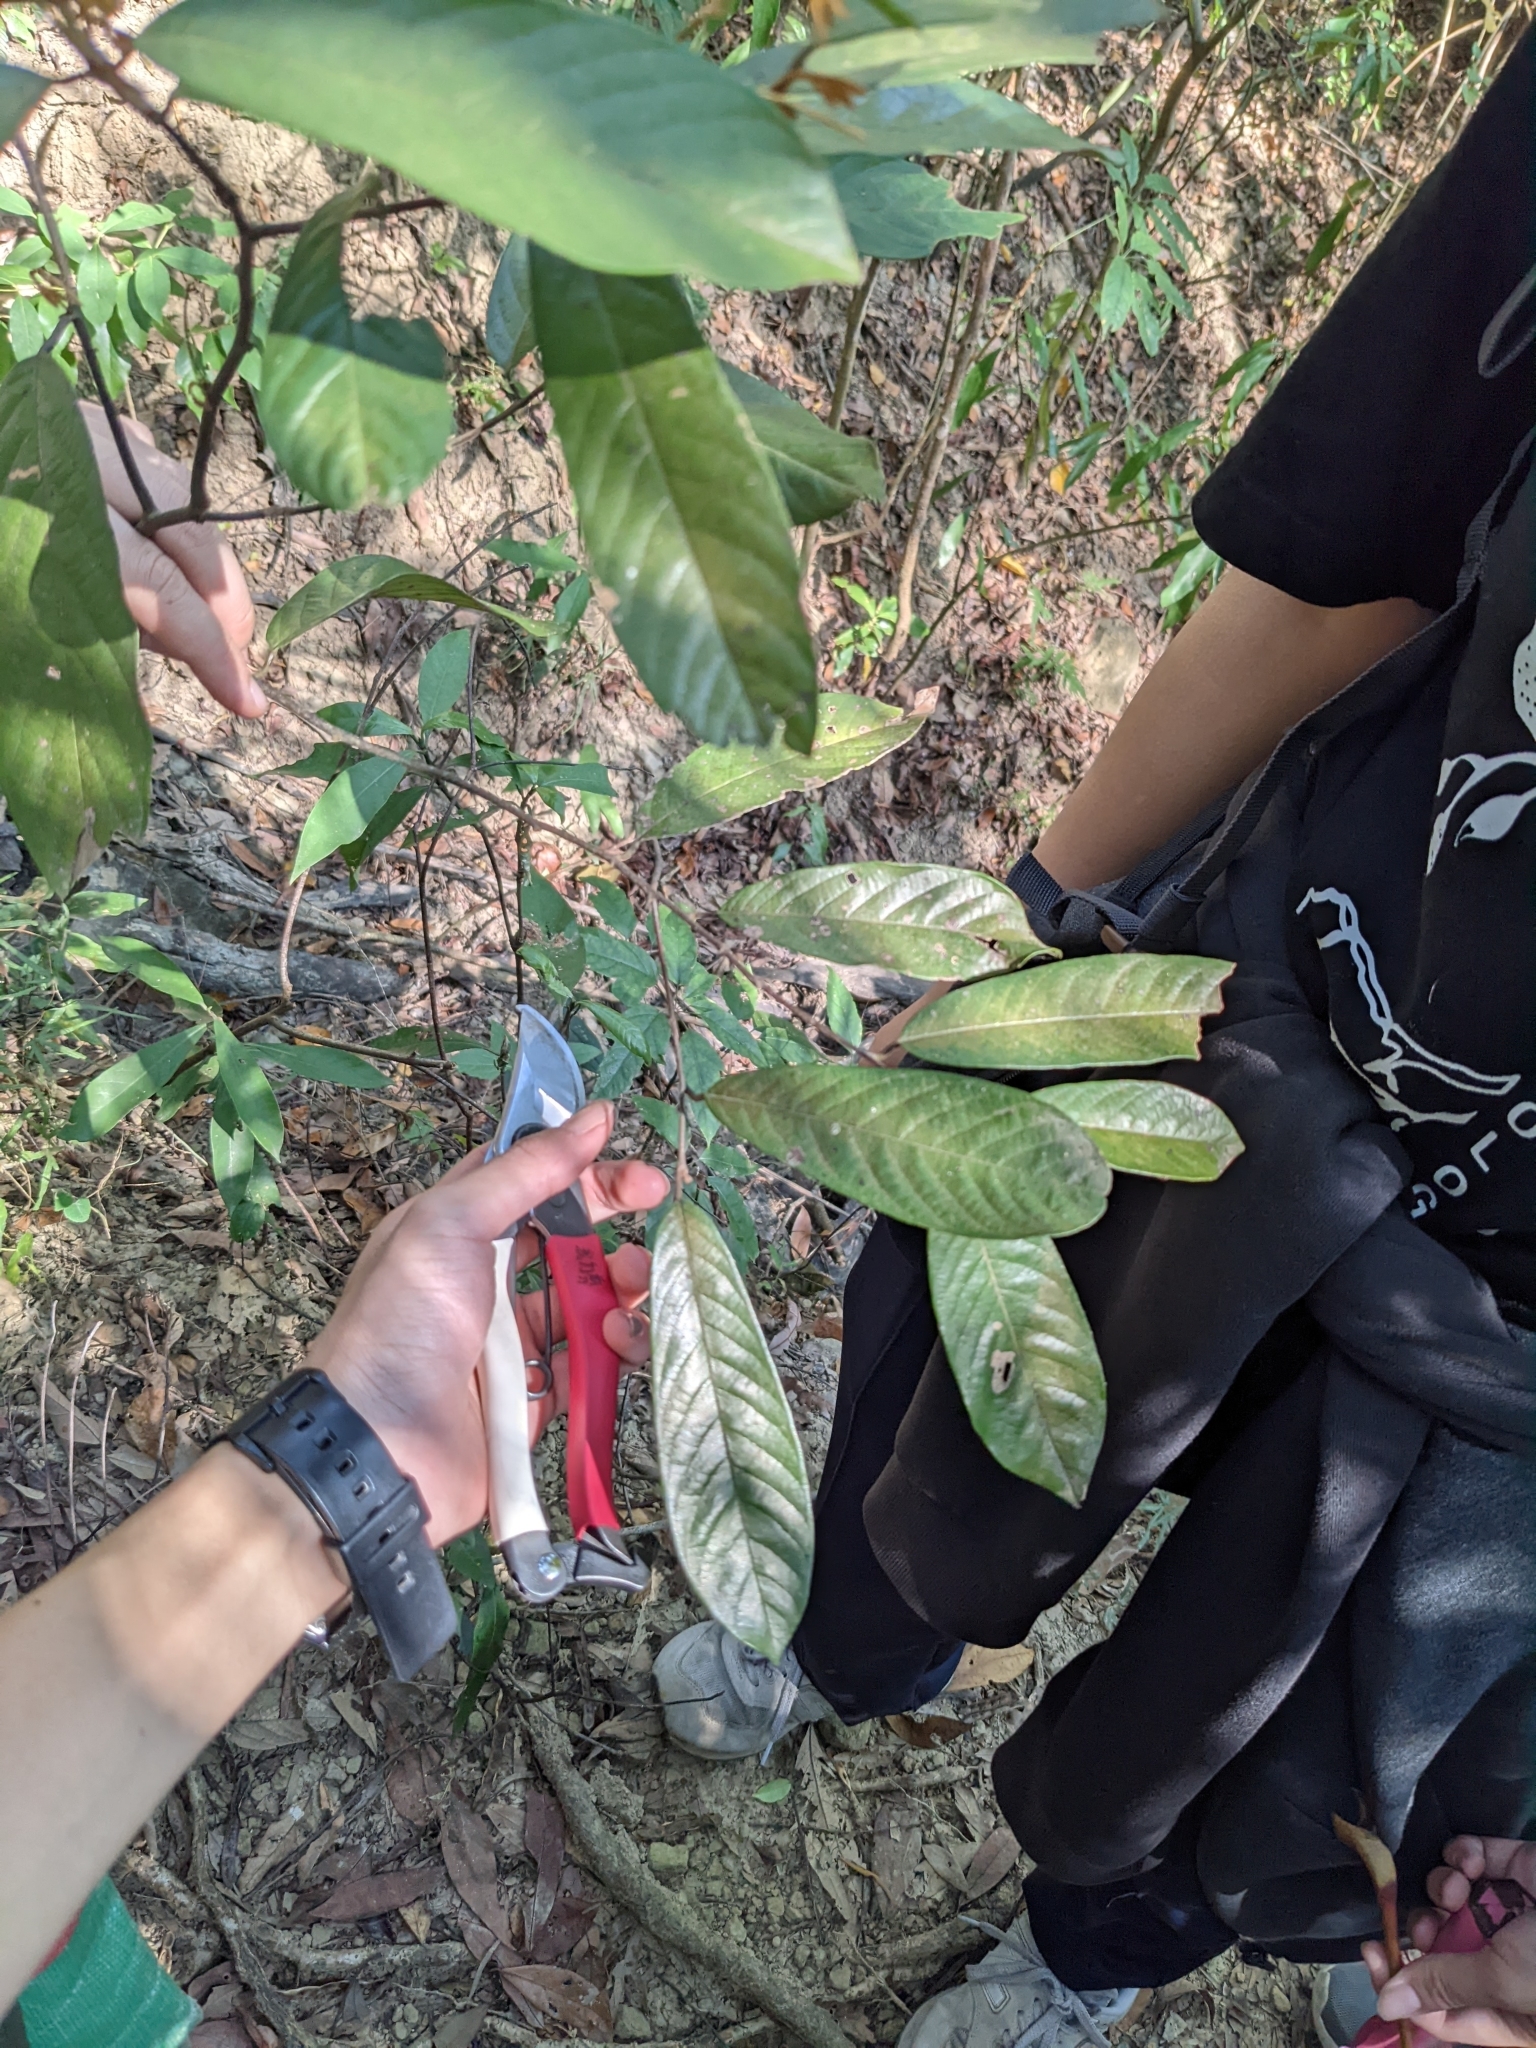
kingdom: Plantae
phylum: Tracheophyta
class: Magnoliopsida
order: Magnoliales
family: Annonaceae
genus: Fissistigma
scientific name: Fissistigma oldhamii
